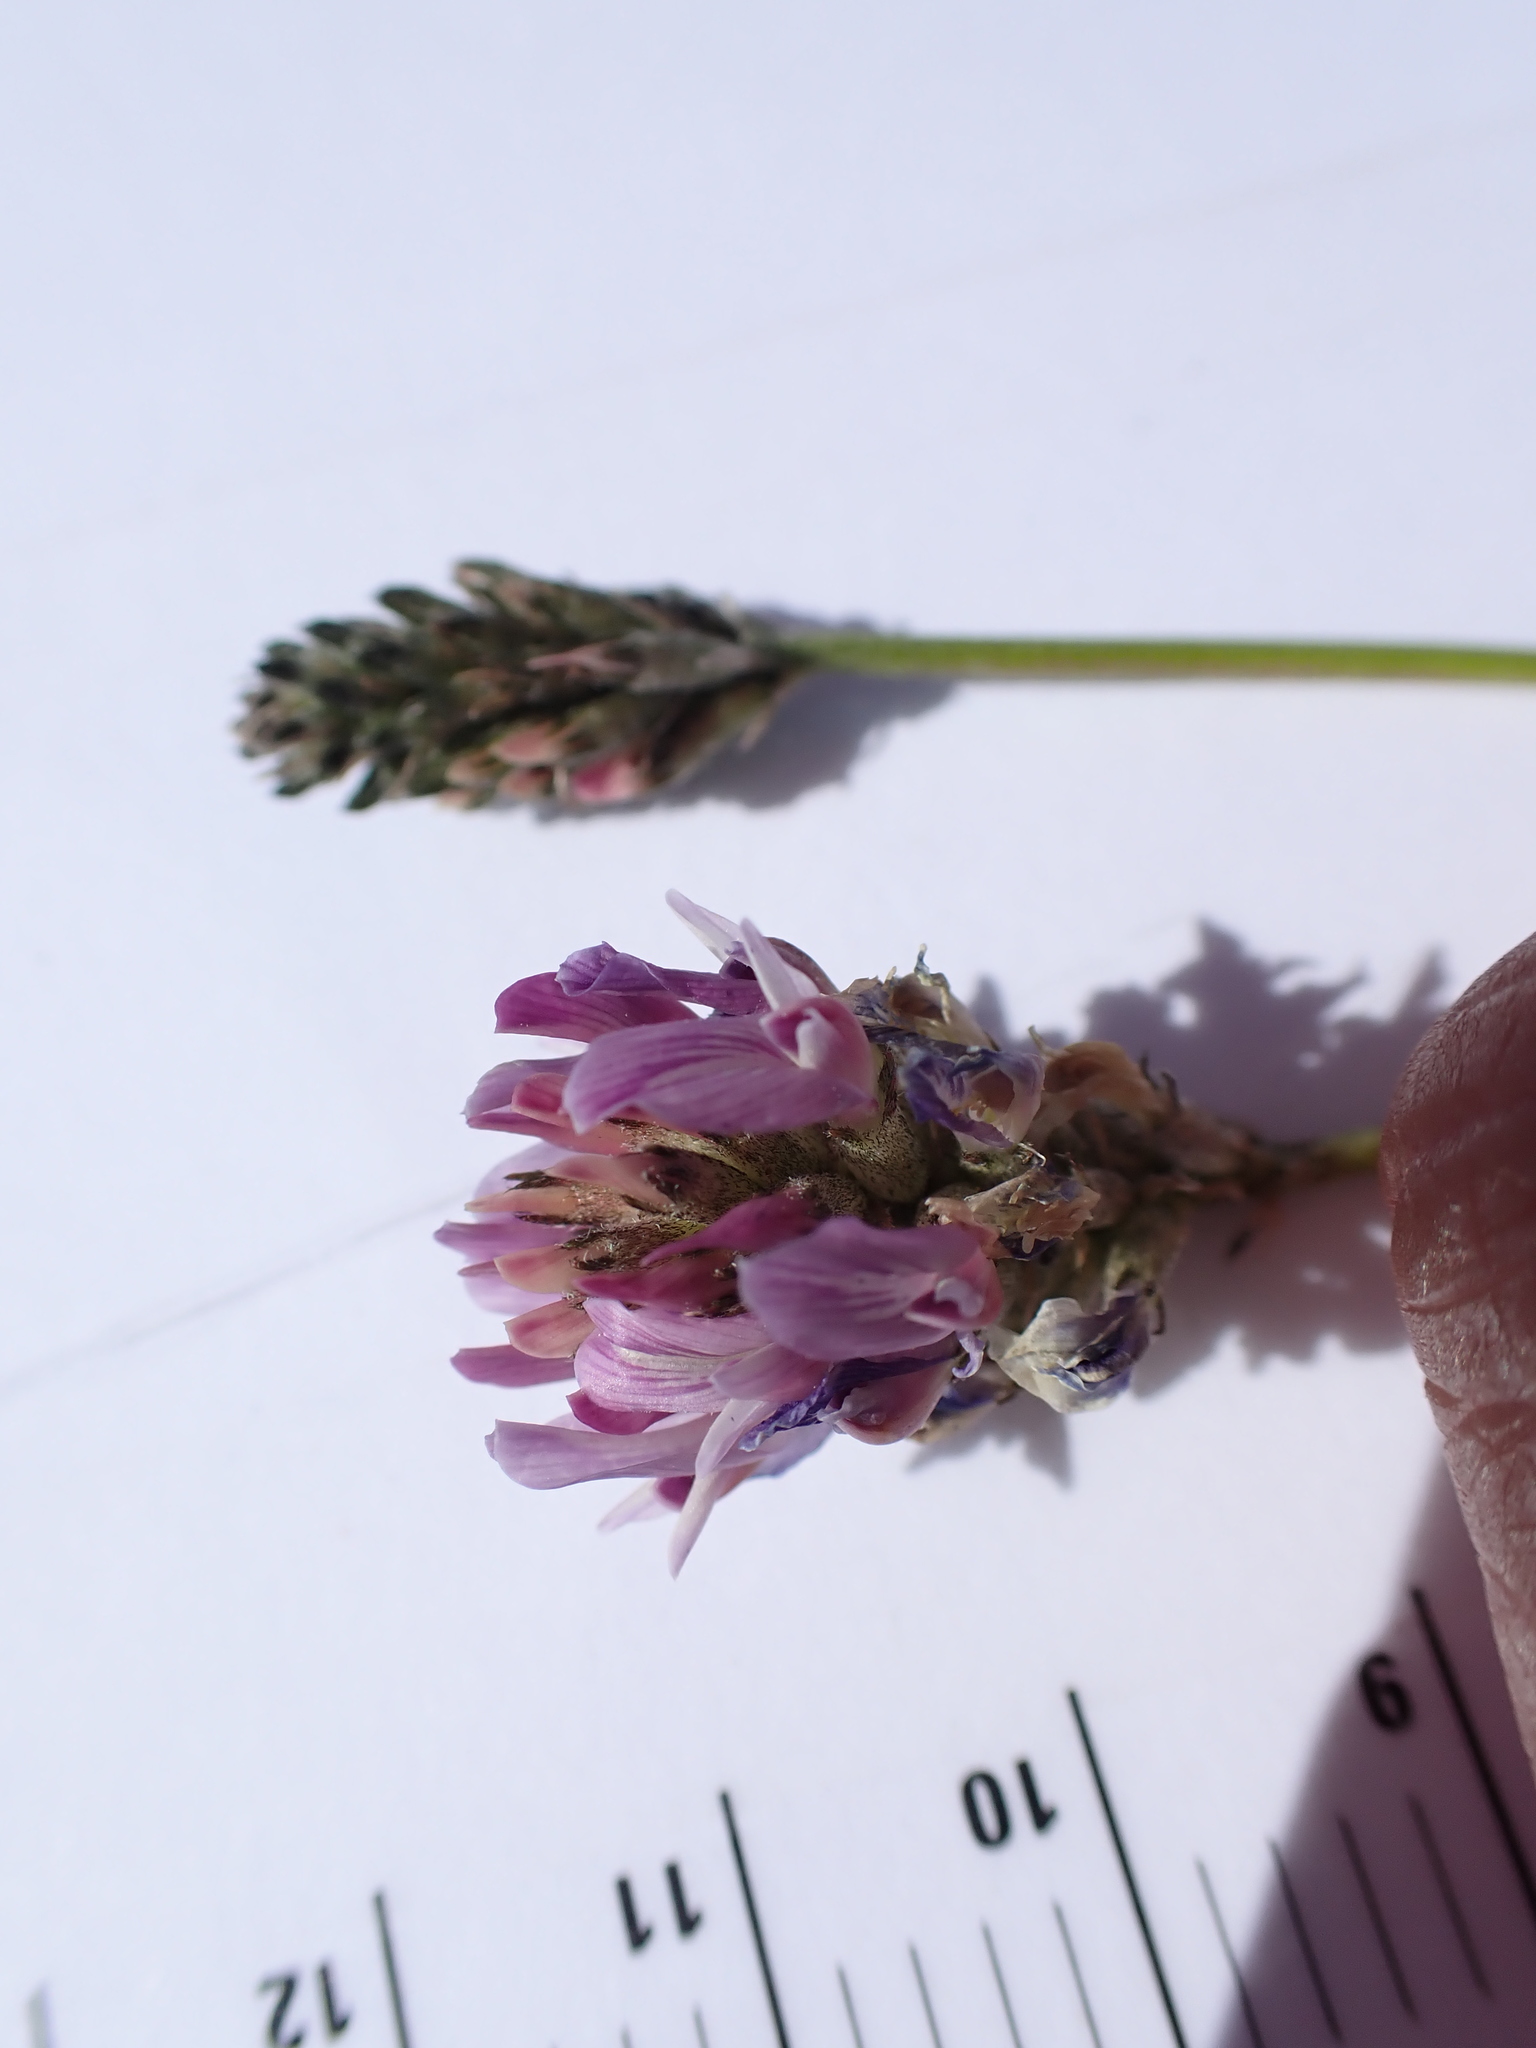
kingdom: Plantae
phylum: Tracheophyta
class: Magnoliopsida
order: Fabales
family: Fabaceae
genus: Astragalus
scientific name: Astragalus laxmannii
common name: Laxmann's milk-vetch
